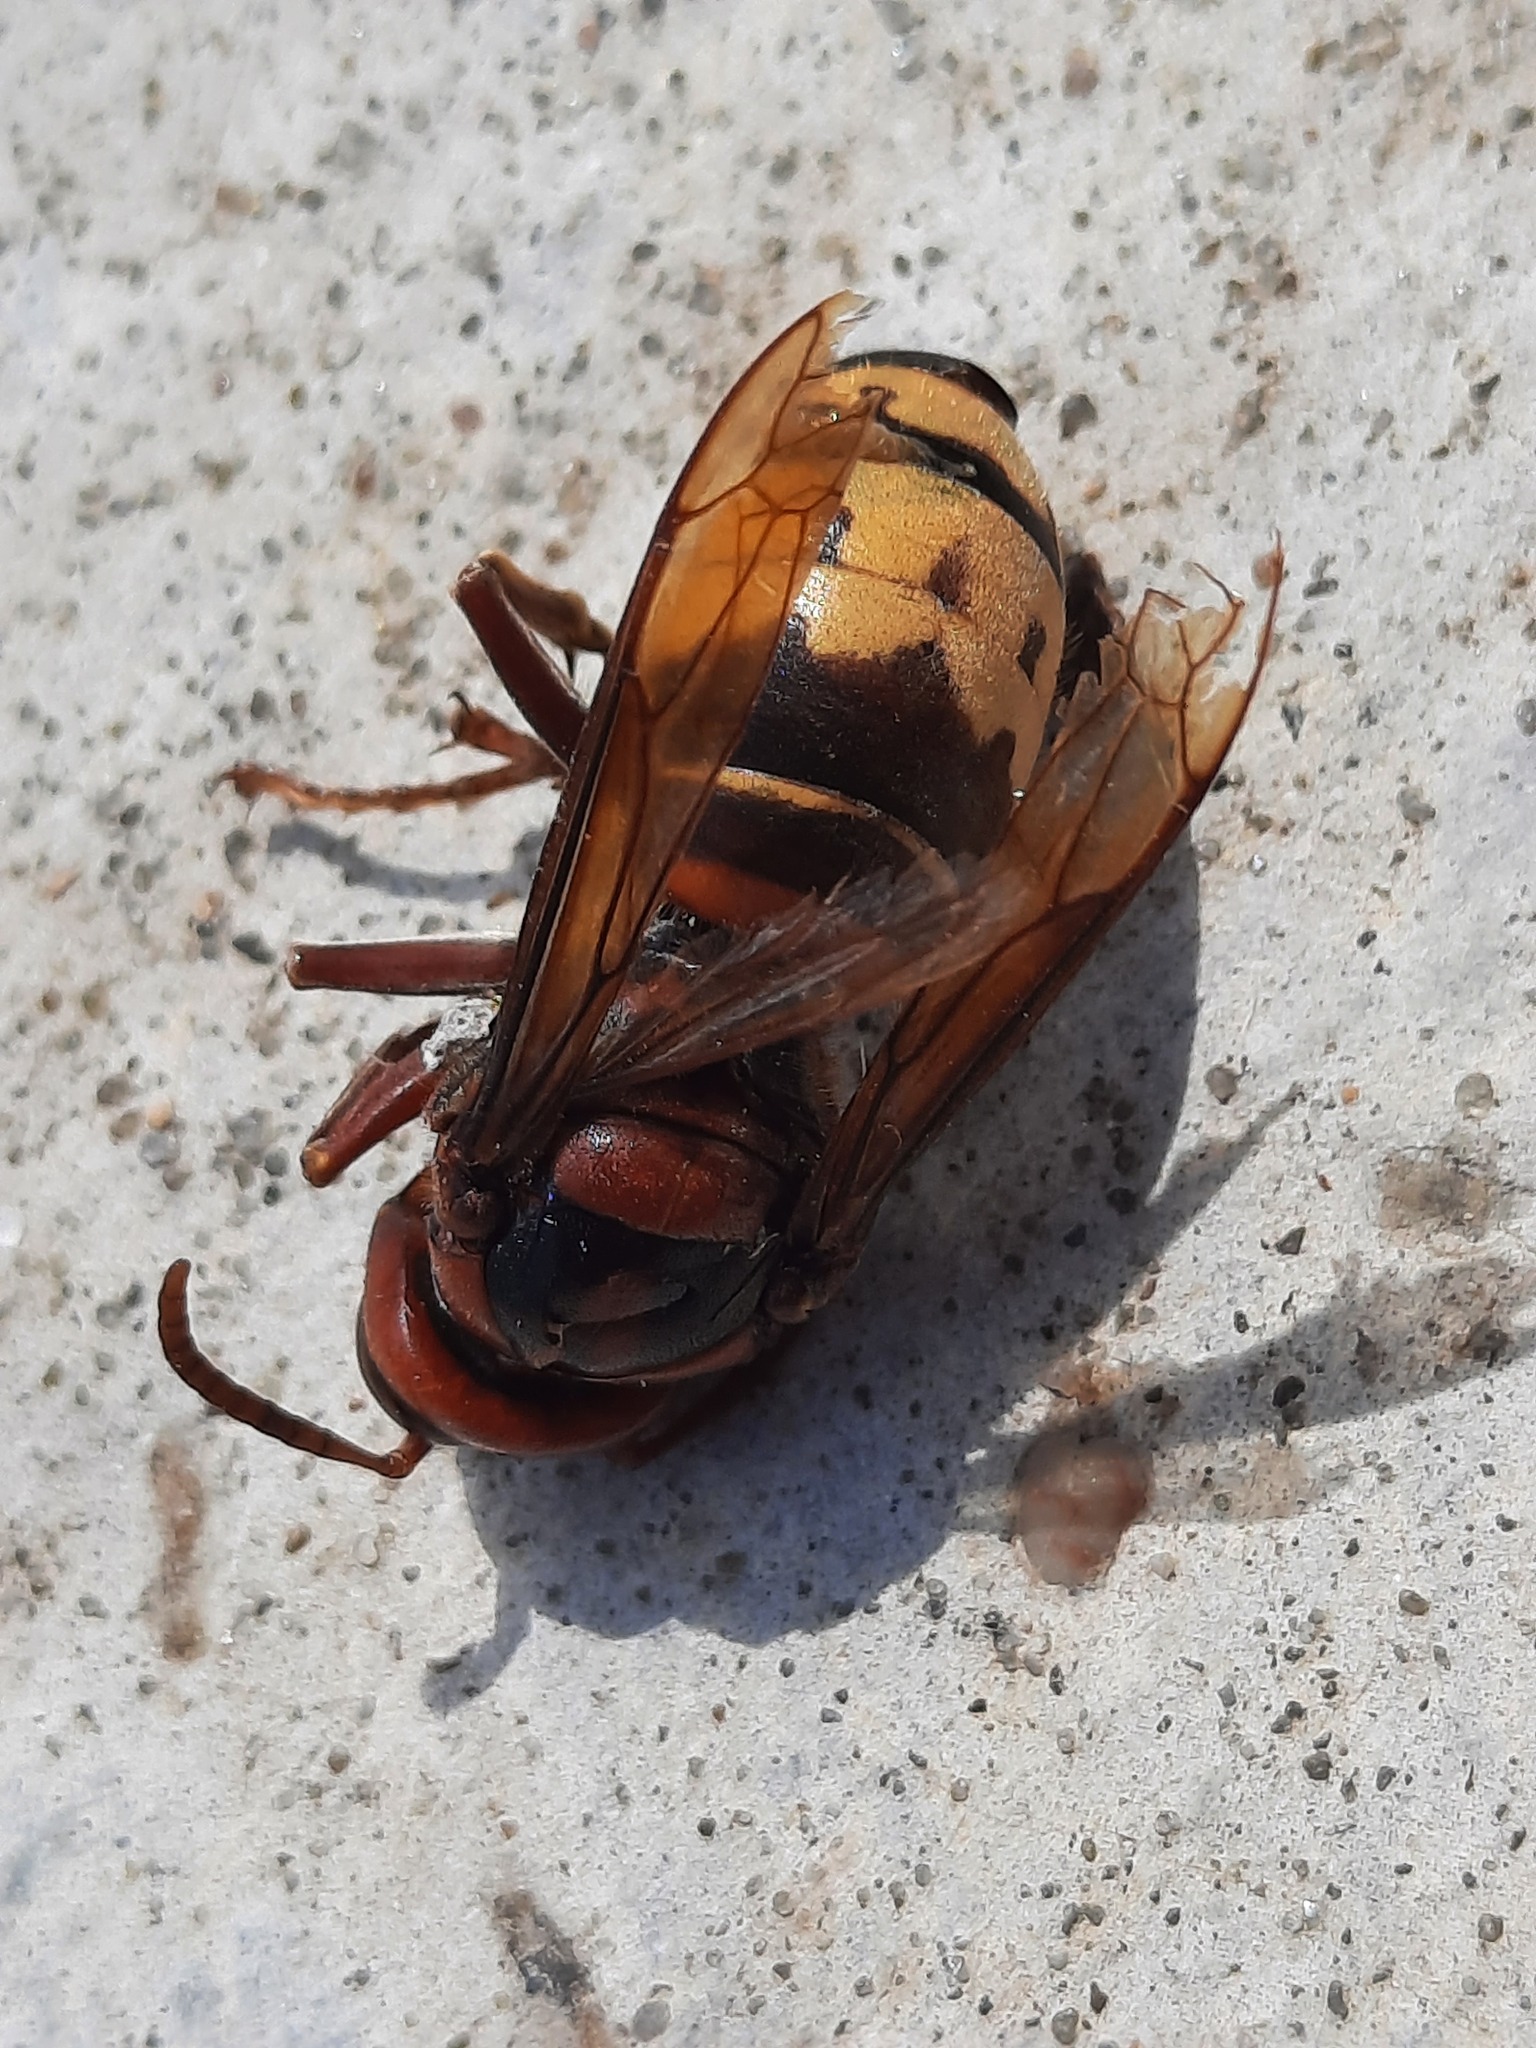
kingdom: Animalia
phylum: Arthropoda
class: Insecta
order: Hymenoptera
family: Vespidae
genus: Vespa
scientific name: Vespa crabro
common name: Hornet
